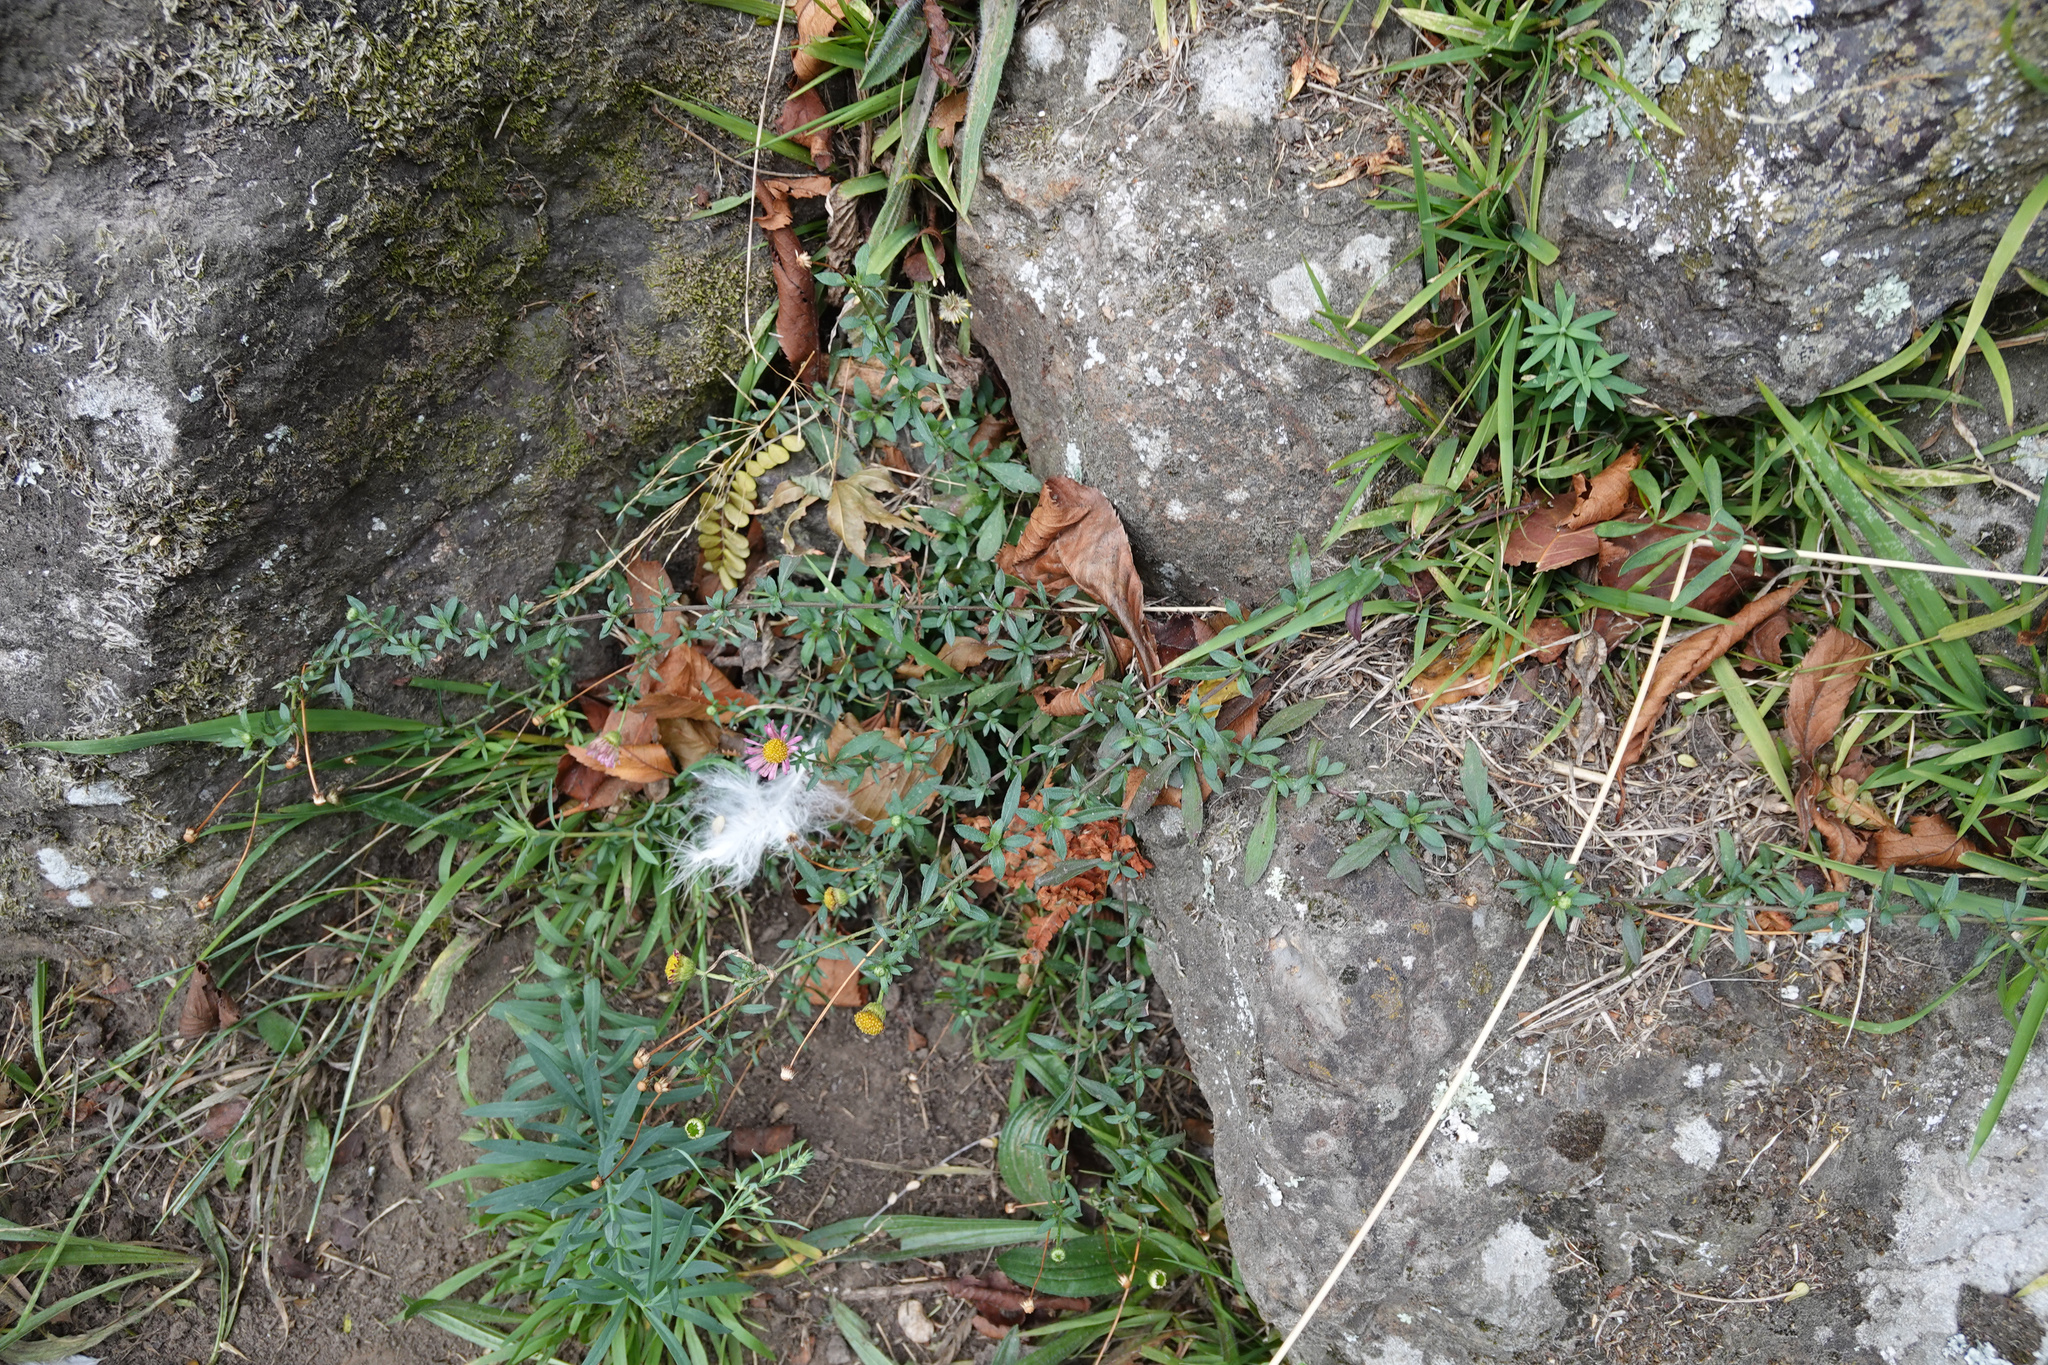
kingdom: Plantae
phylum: Tracheophyta
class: Magnoliopsida
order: Asterales
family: Asteraceae
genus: Erigeron
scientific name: Erigeron karvinskianus
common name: Mexican fleabane
